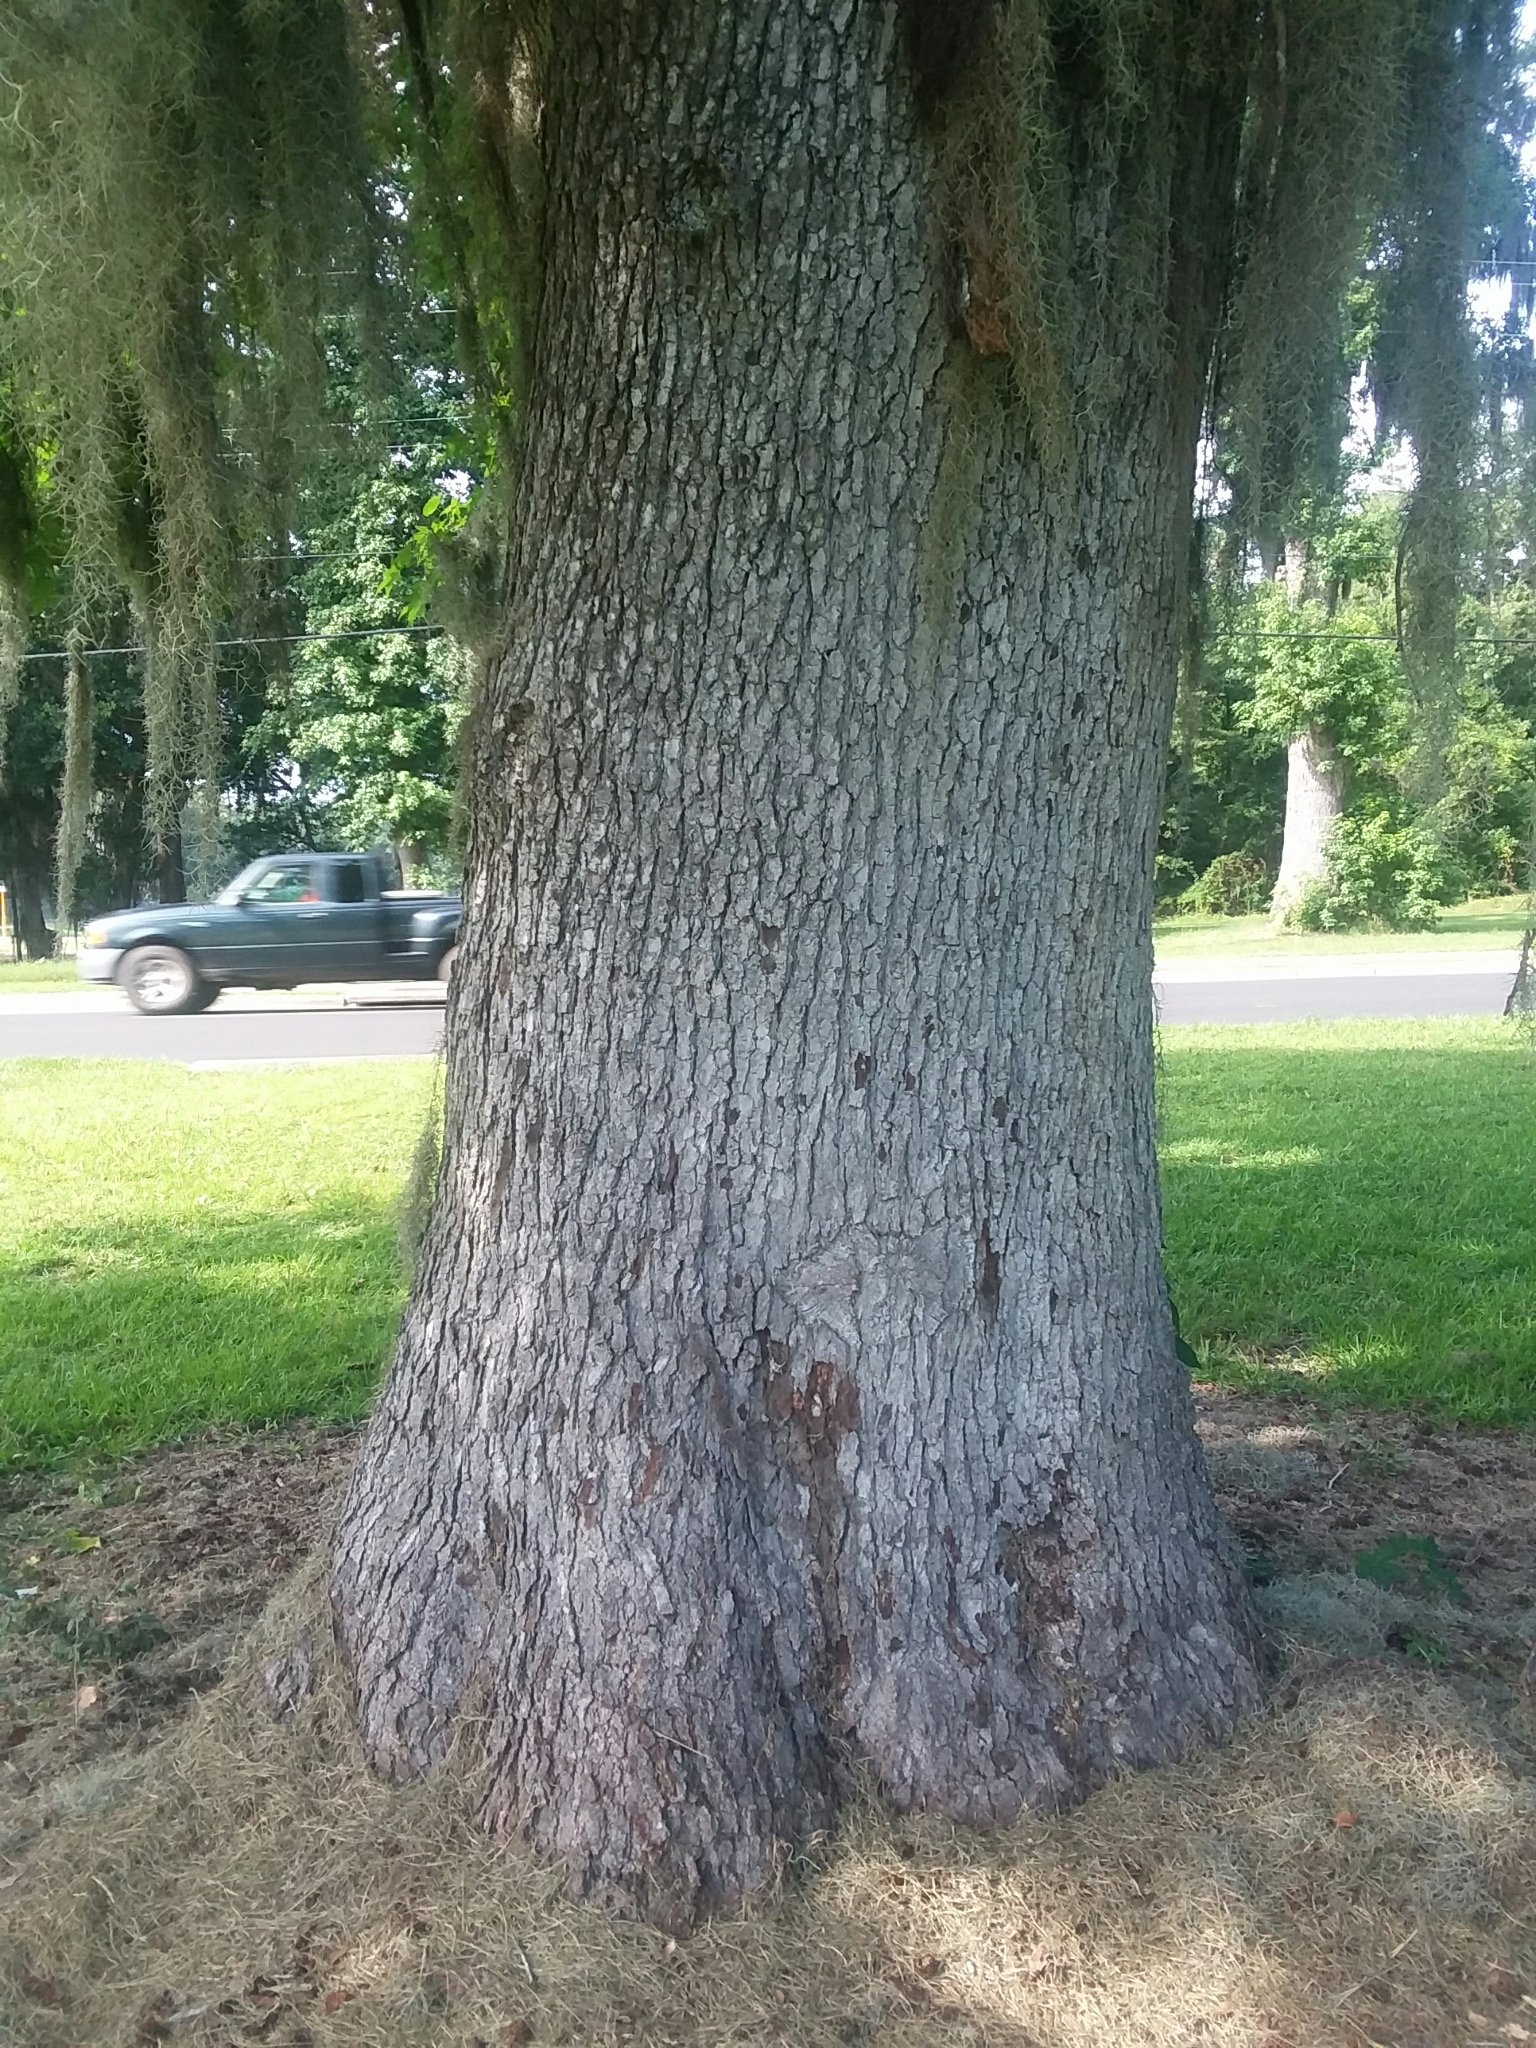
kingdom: Plantae
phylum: Tracheophyta
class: Magnoliopsida
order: Saxifragales
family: Altingiaceae
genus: Liquidambar
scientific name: Liquidambar styraciflua
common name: Sweet gum
